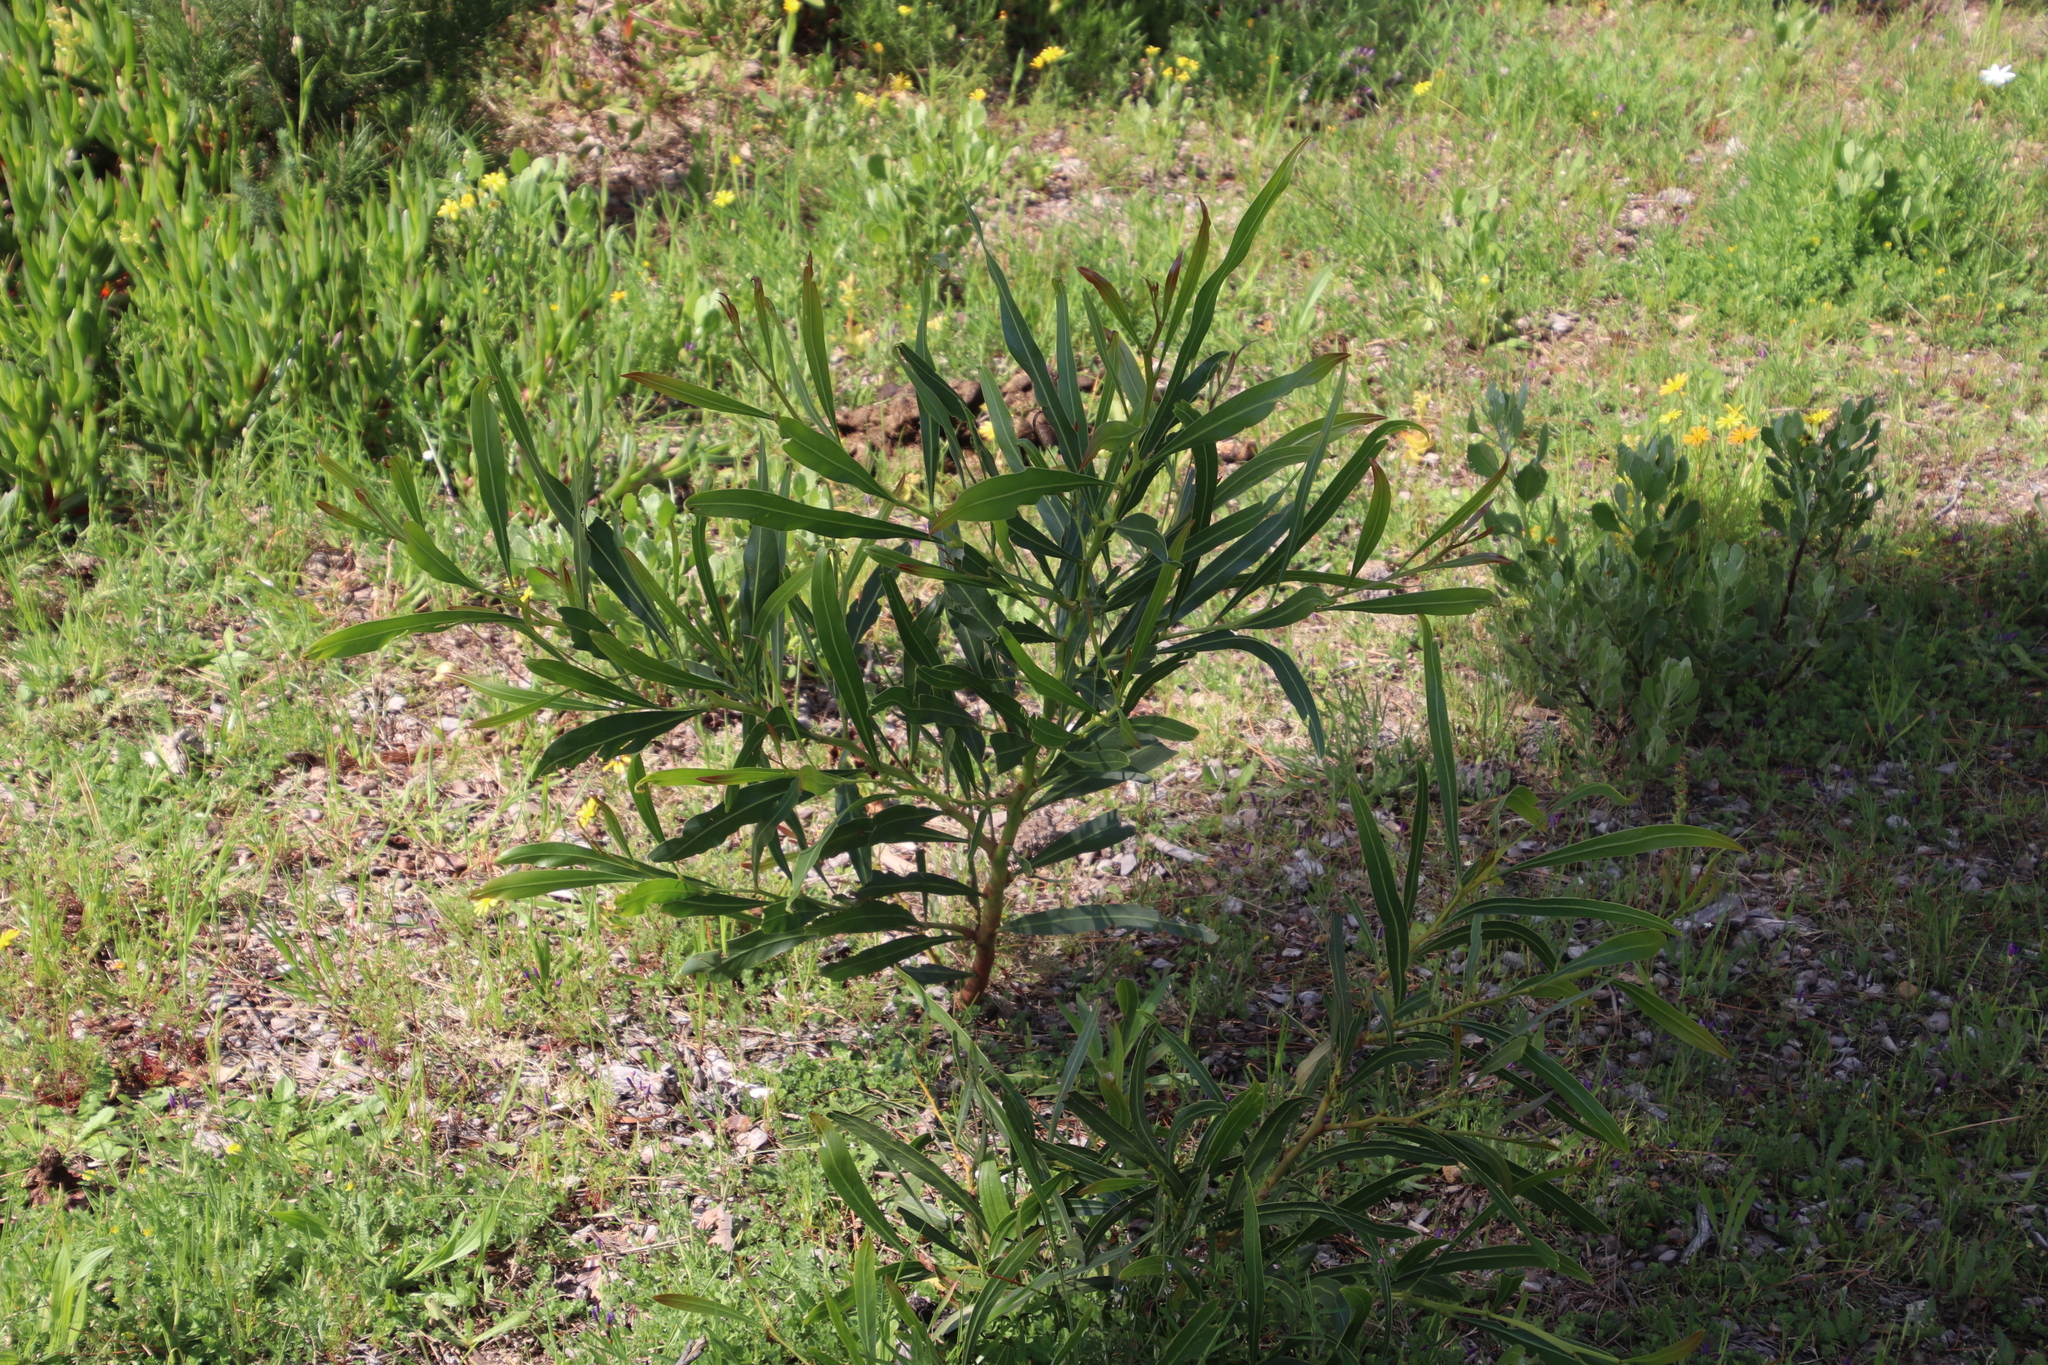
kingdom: Plantae
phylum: Tracheophyta
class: Magnoliopsida
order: Fabales
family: Fabaceae
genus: Acacia
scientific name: Acacia saligna
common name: Orange wattle
